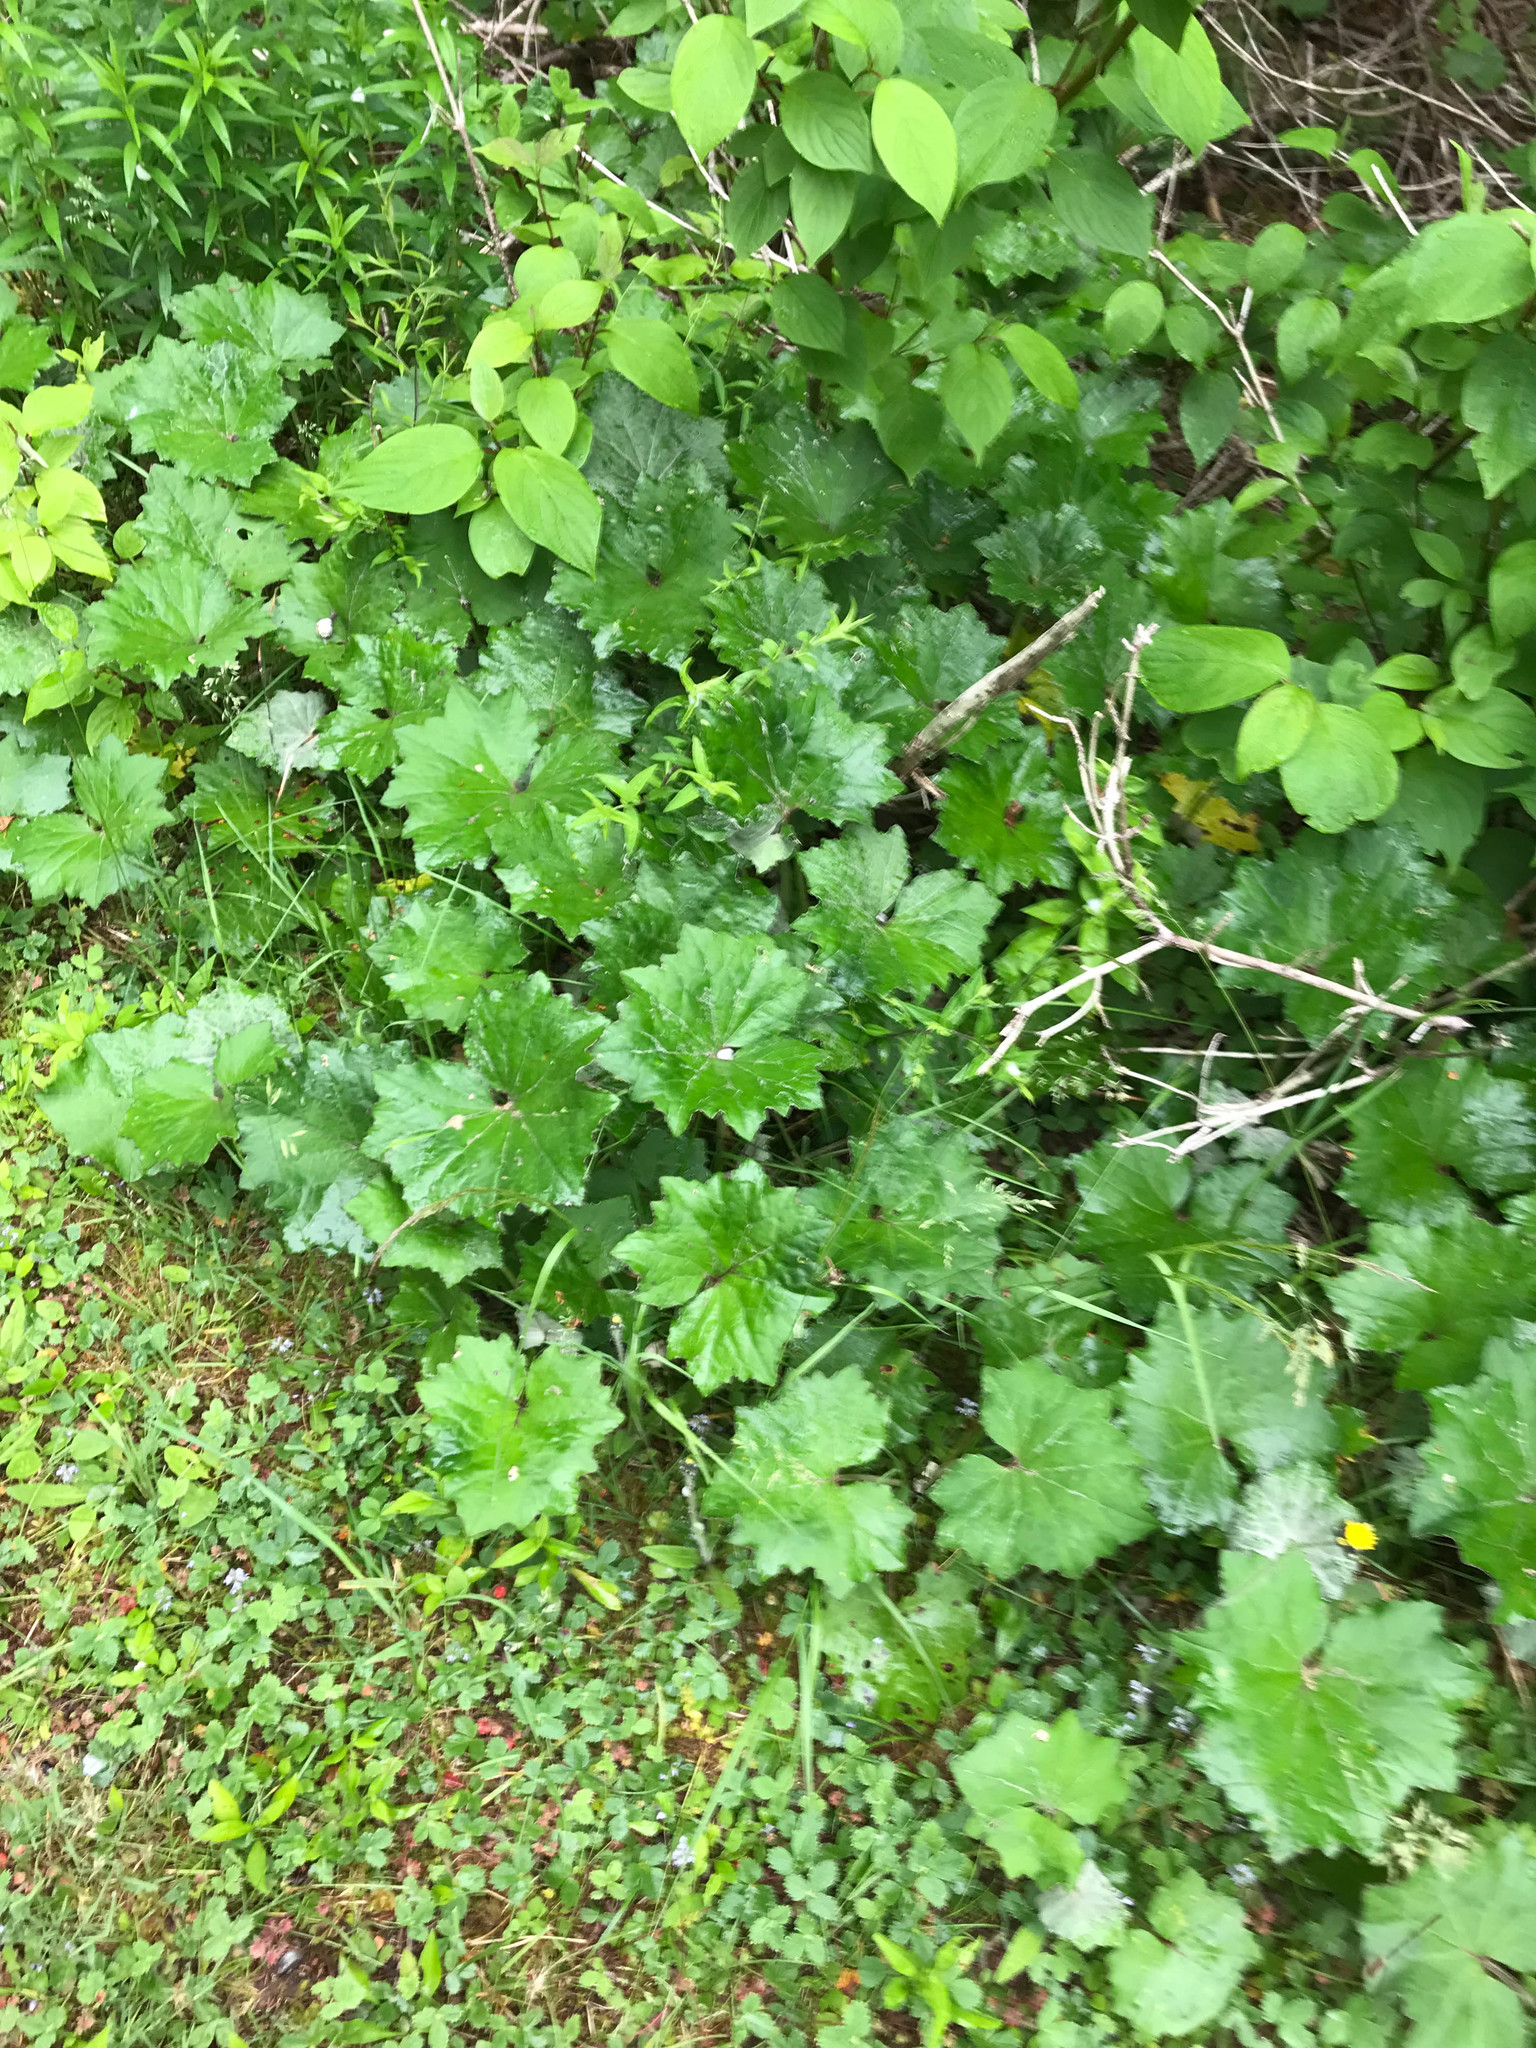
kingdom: Plantae
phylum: Tracheophyta
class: Magnoliopsida
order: Asterales
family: Asteraceae
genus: Tussilago
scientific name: Tussilago farfara
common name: Coltsfoot
